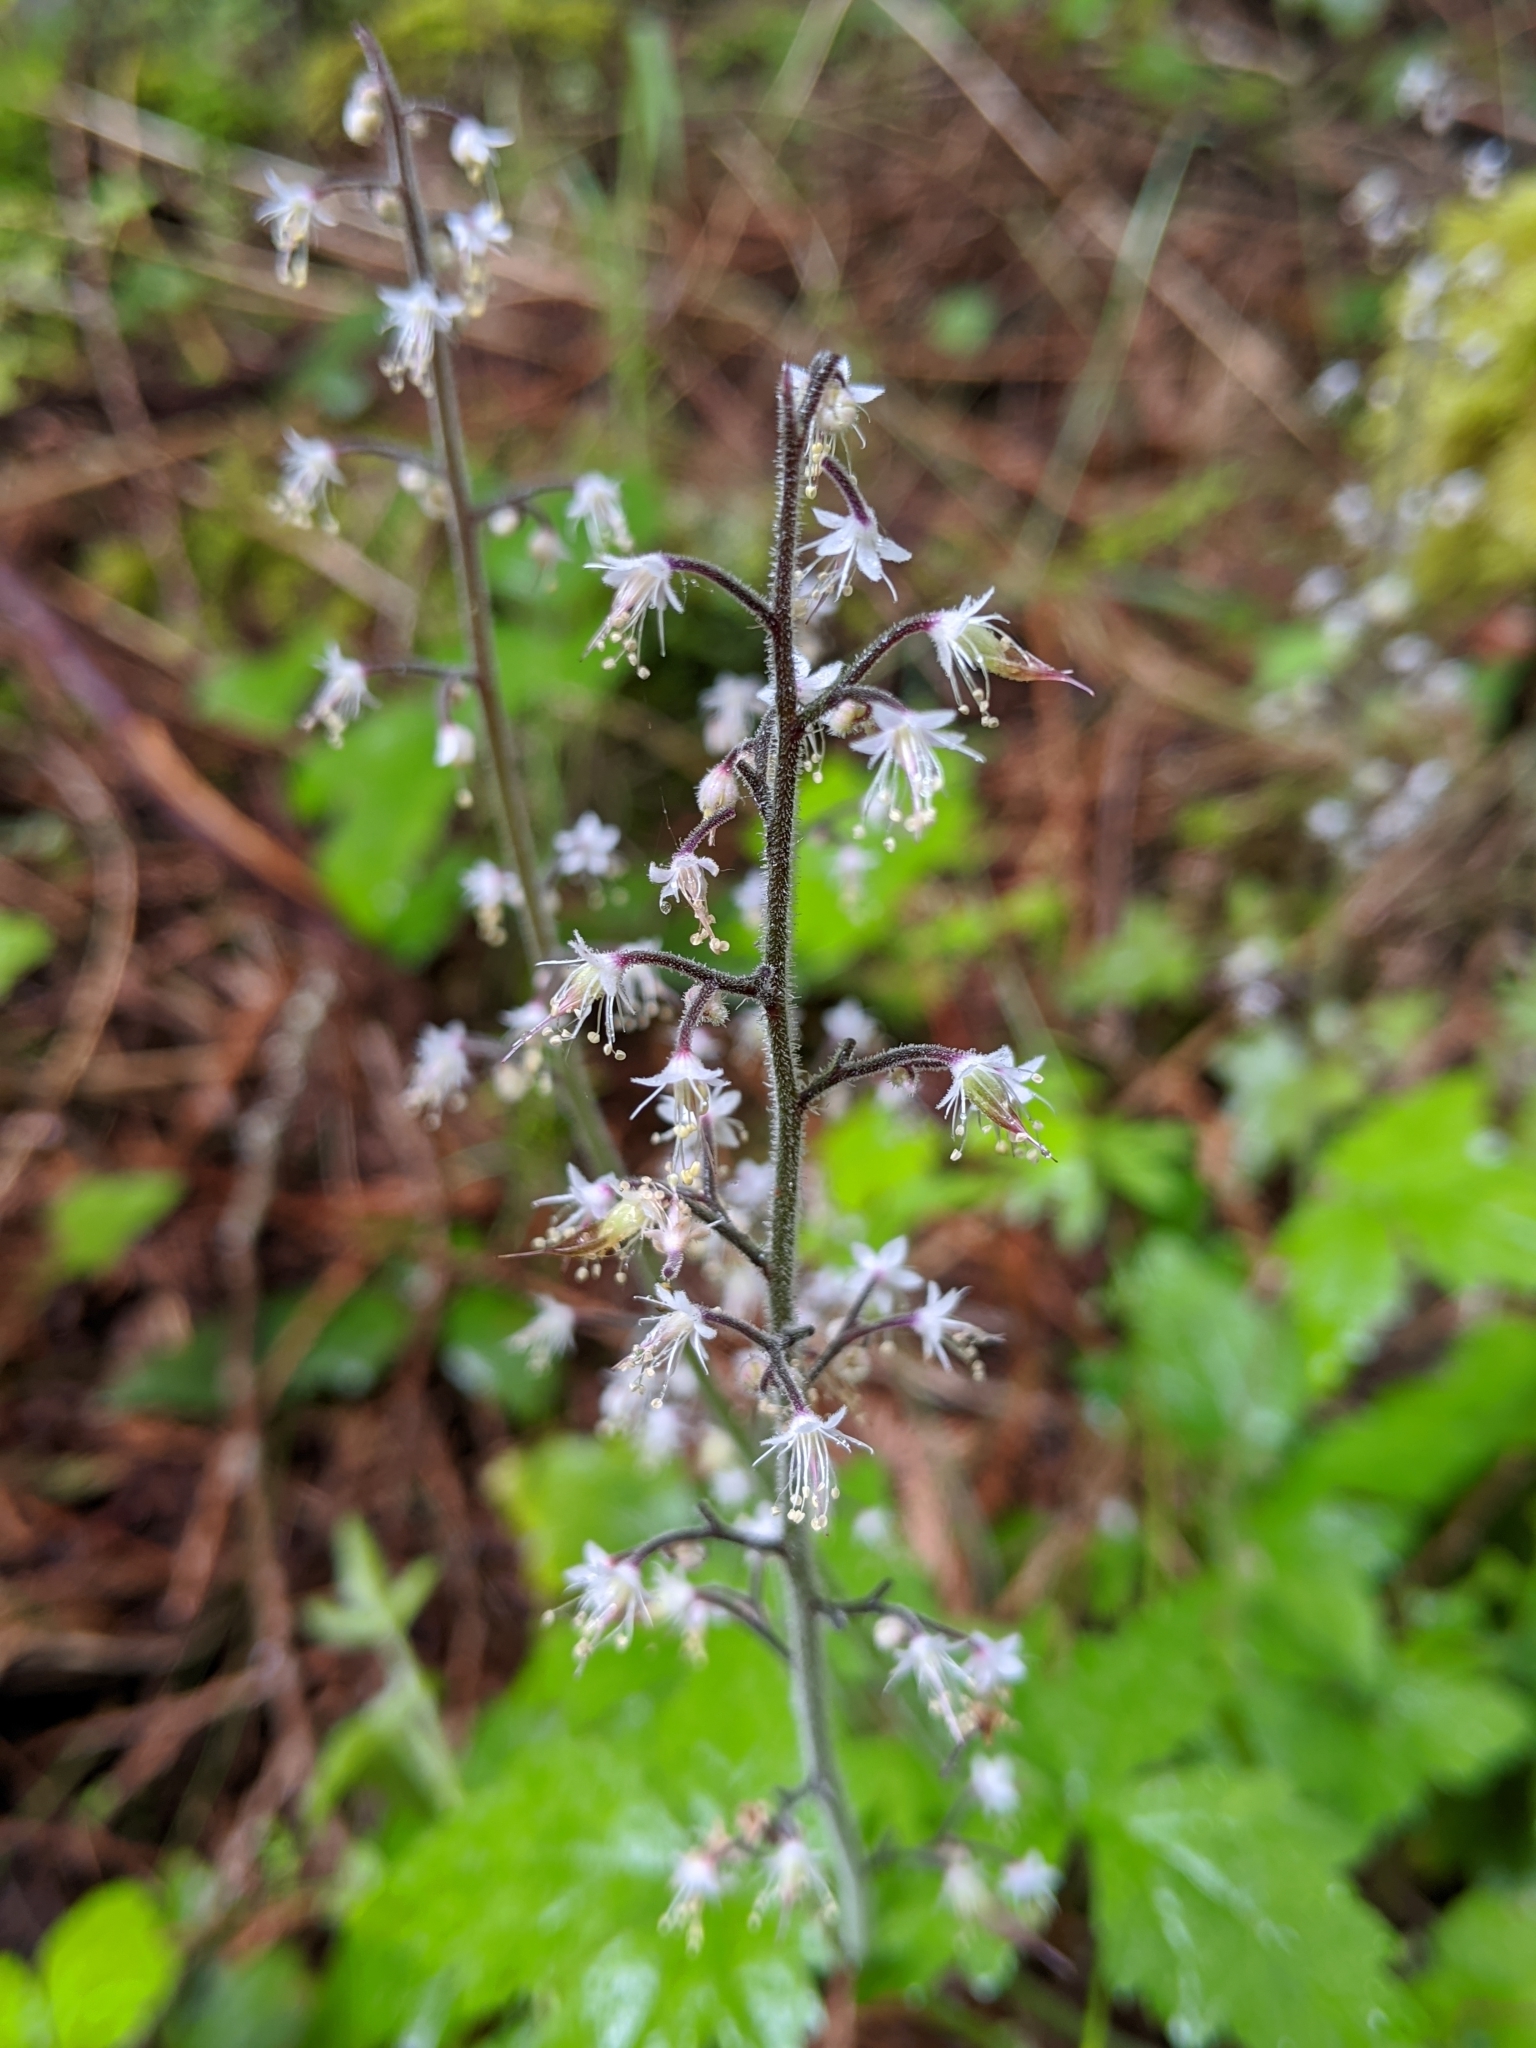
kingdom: Plantae
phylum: Tracheophyta
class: Magnoliopsida
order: Saxifragales
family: Saxifragaceae
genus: Tiarella
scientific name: Tiarella trifoliata
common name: Sugar-scoop
